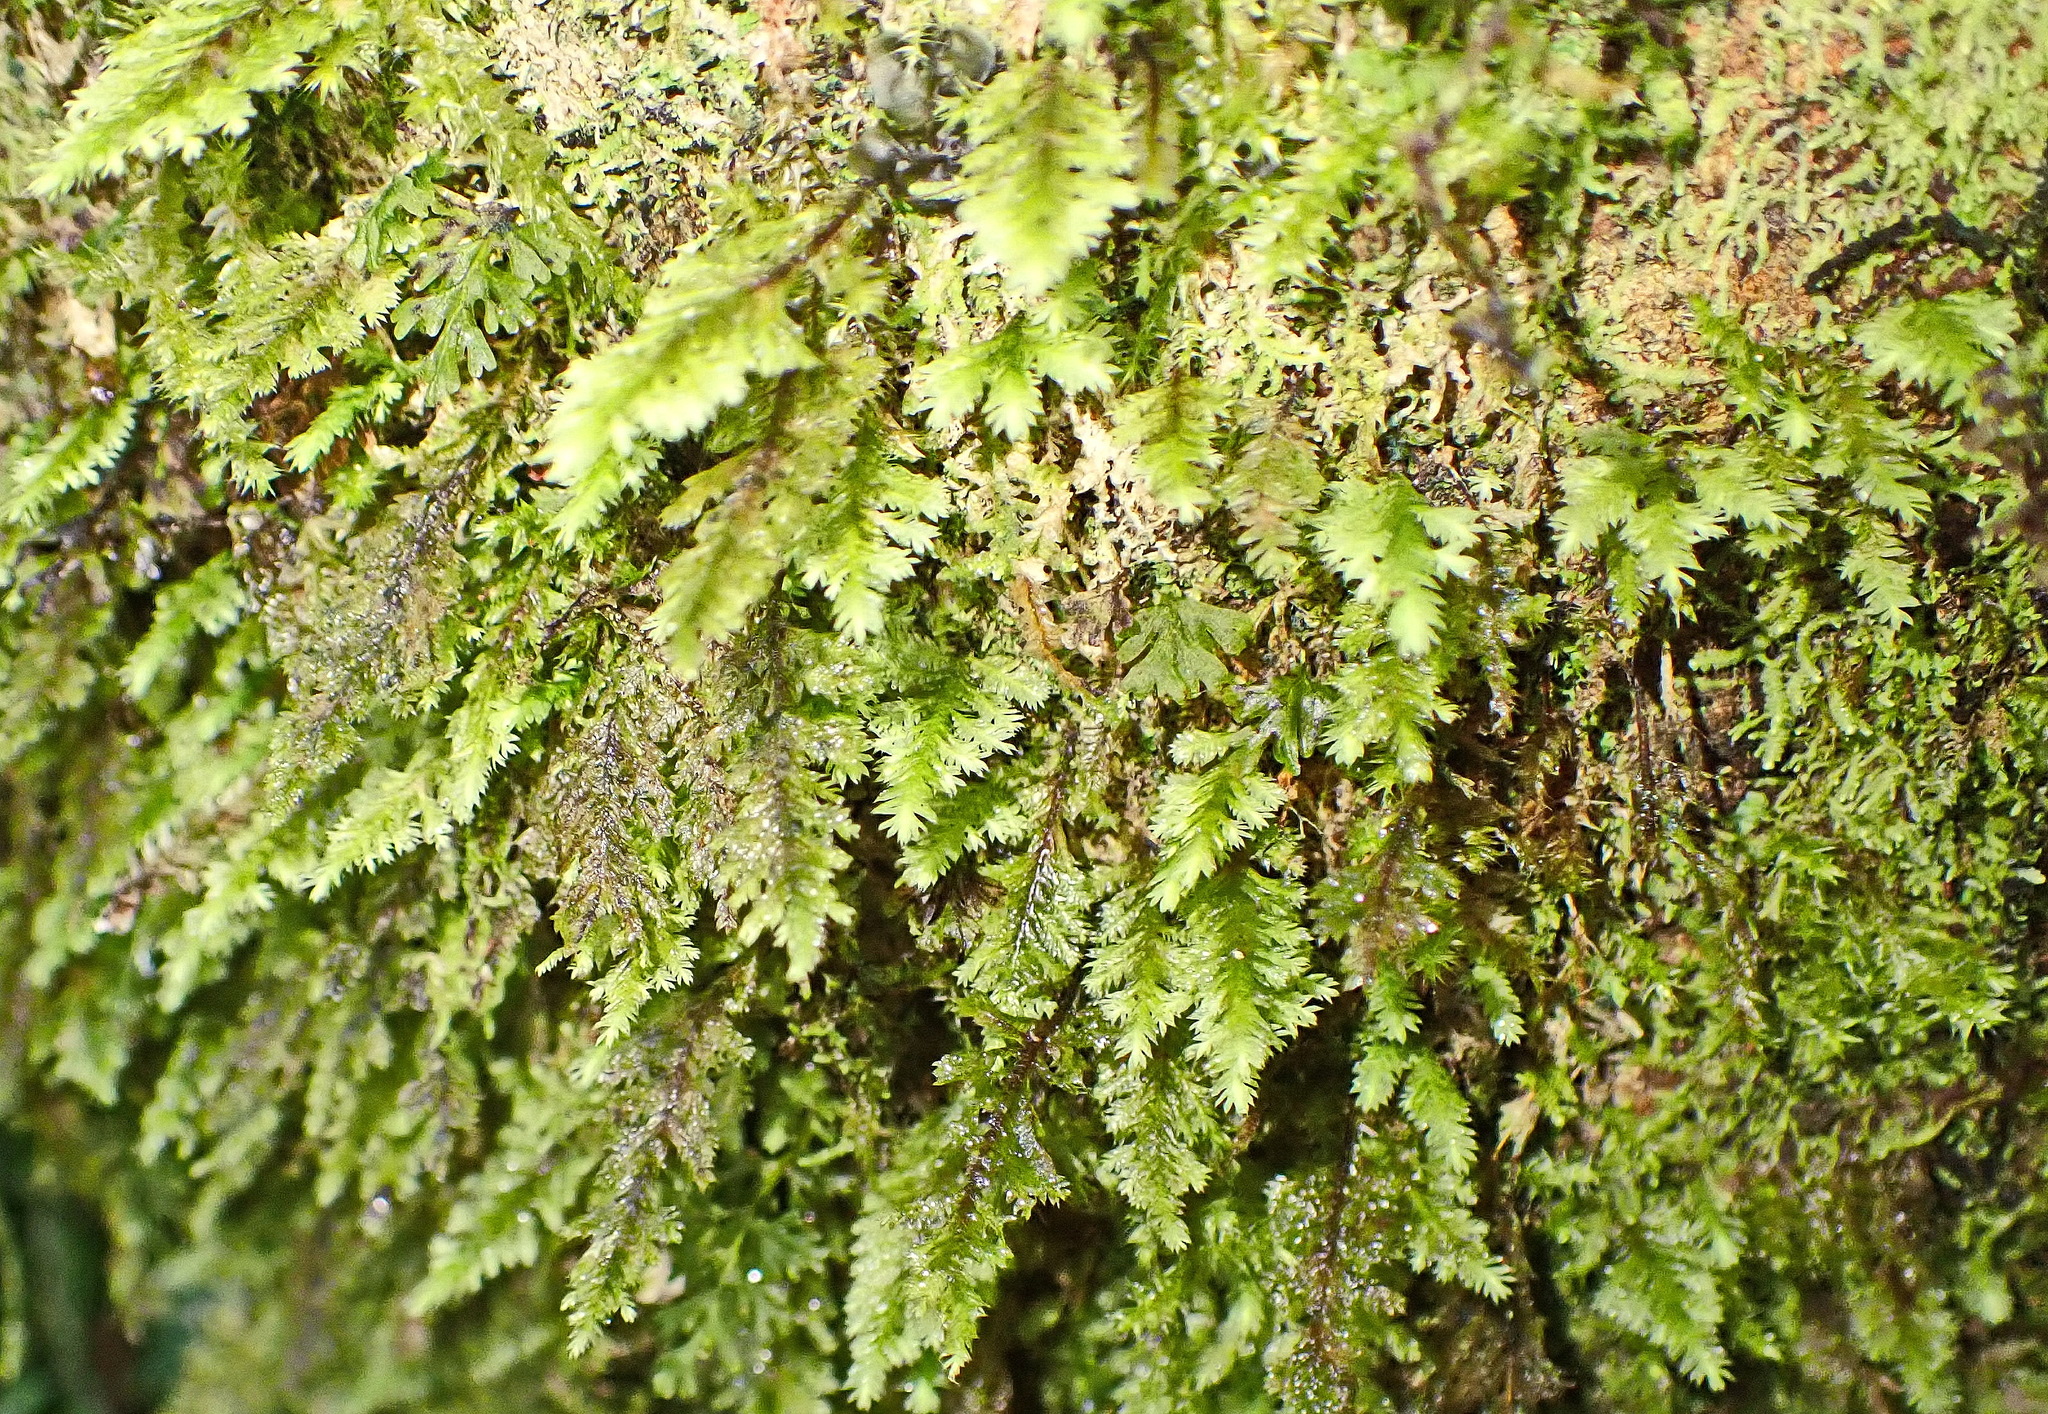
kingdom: Plantae
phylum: Tracheophyta
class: Polypodiopsida
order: Hymenophyllales
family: Hymenophyllaceae
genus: Hymenophyllum
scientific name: Hymenophyllum tunbrigense
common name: Tunbridge filmy fern
